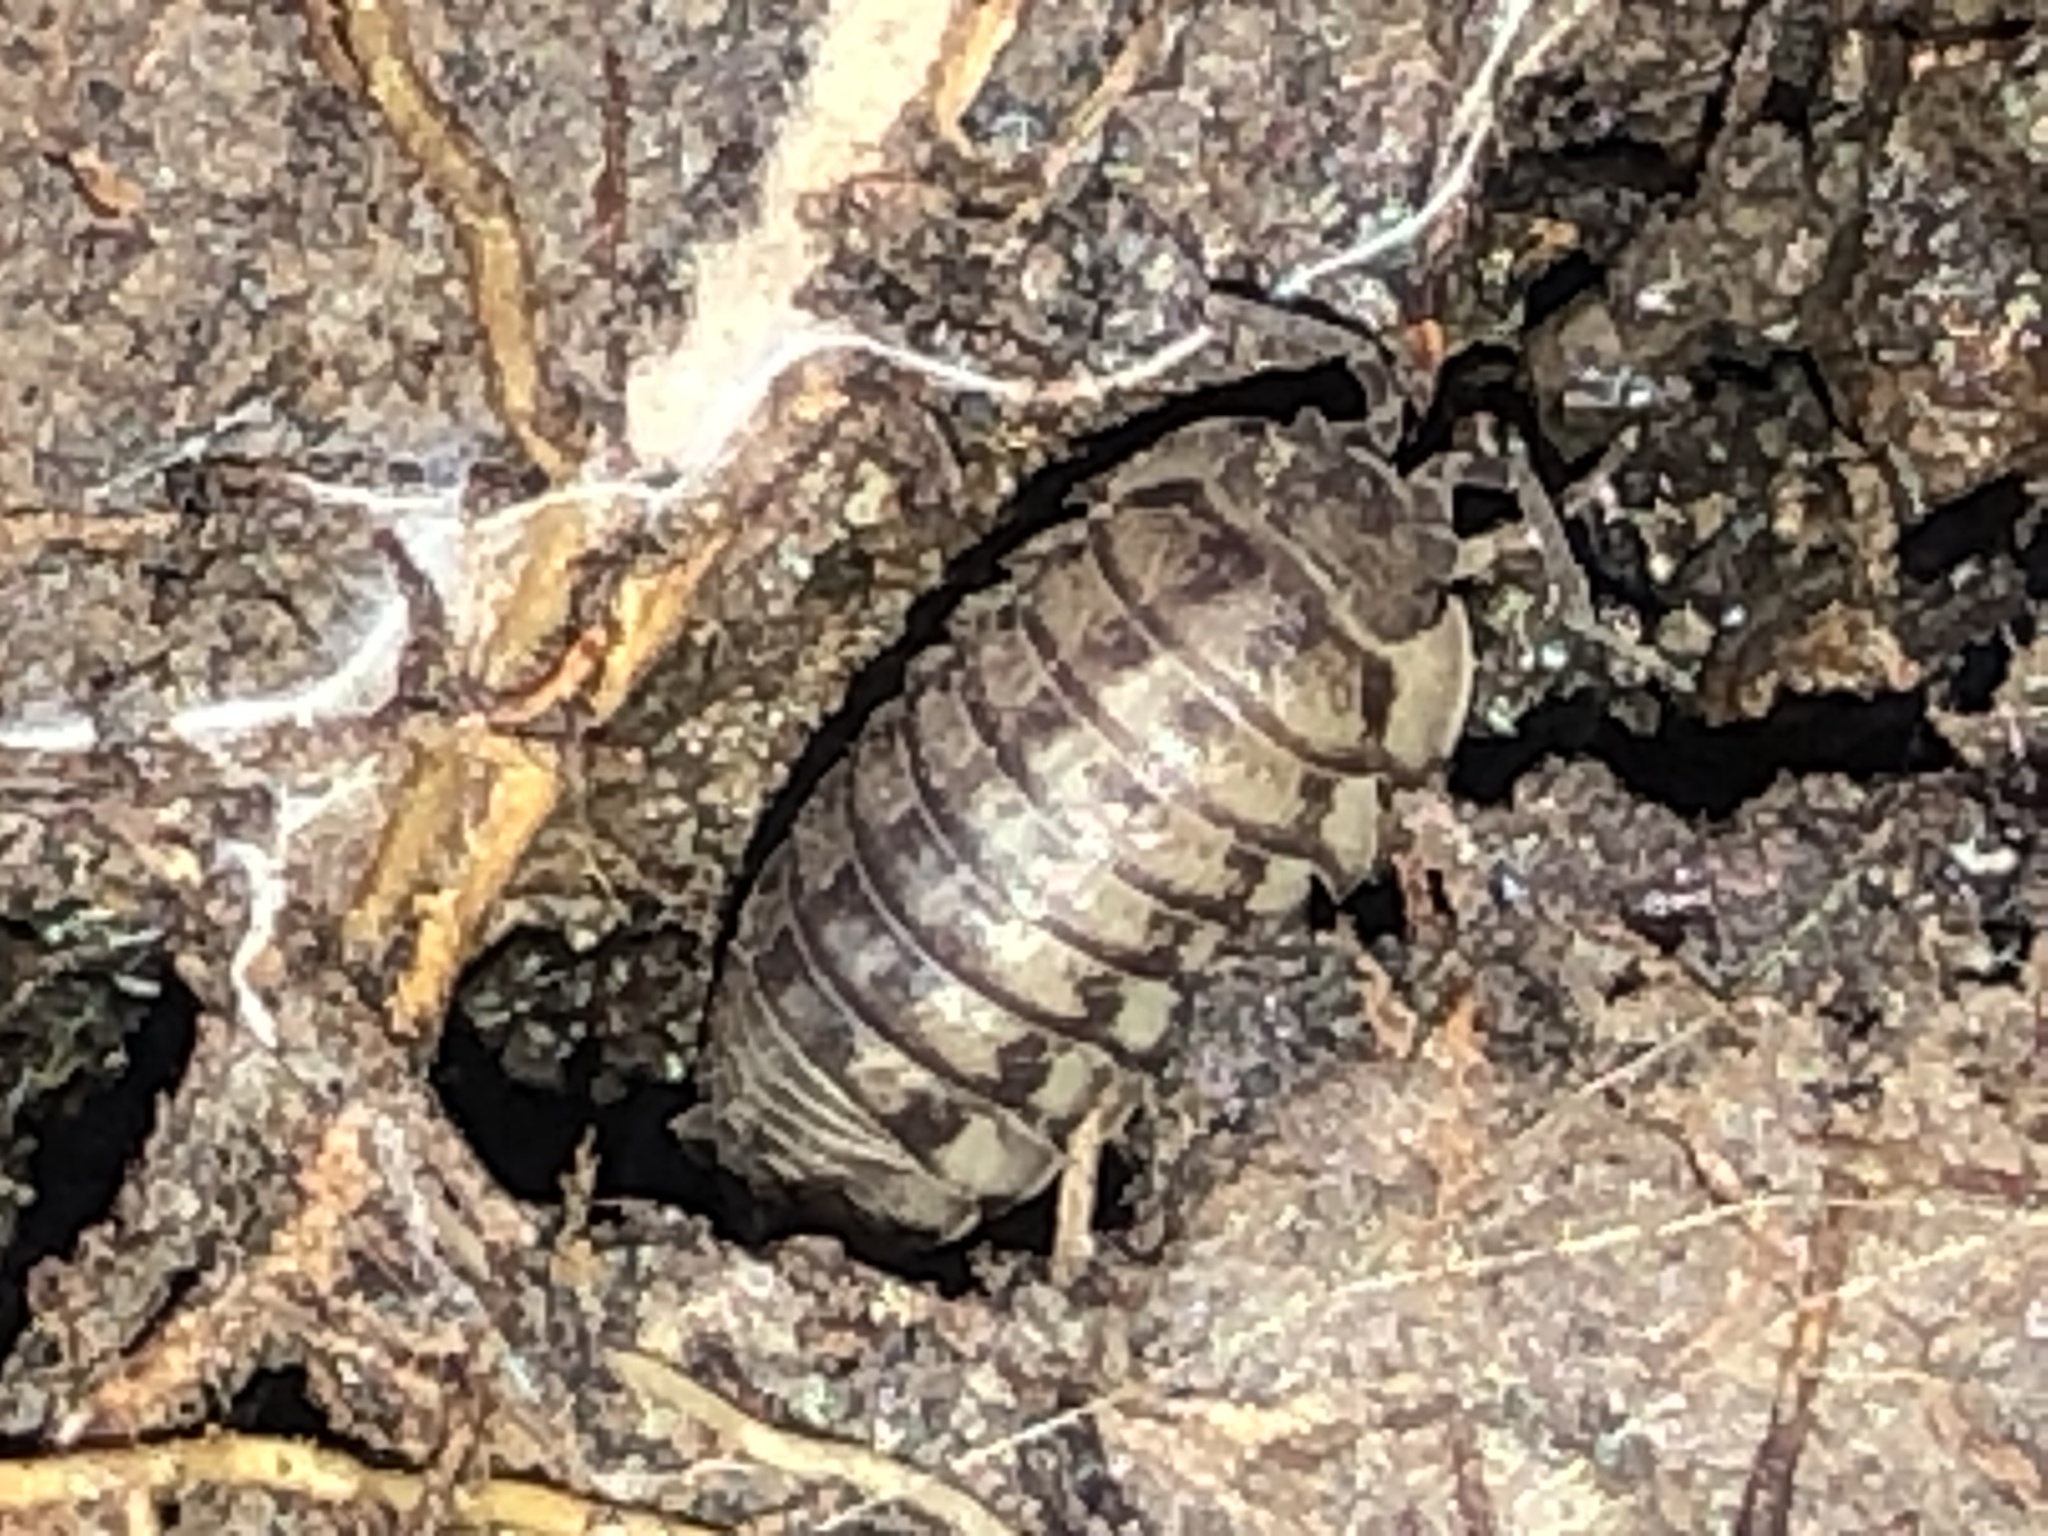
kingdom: Animalia
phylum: Arthropoda
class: Malacostraca
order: Isopoda
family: Armadillidiidae
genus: Armadillidium
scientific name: Armadillidium nasatum
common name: Isopod
